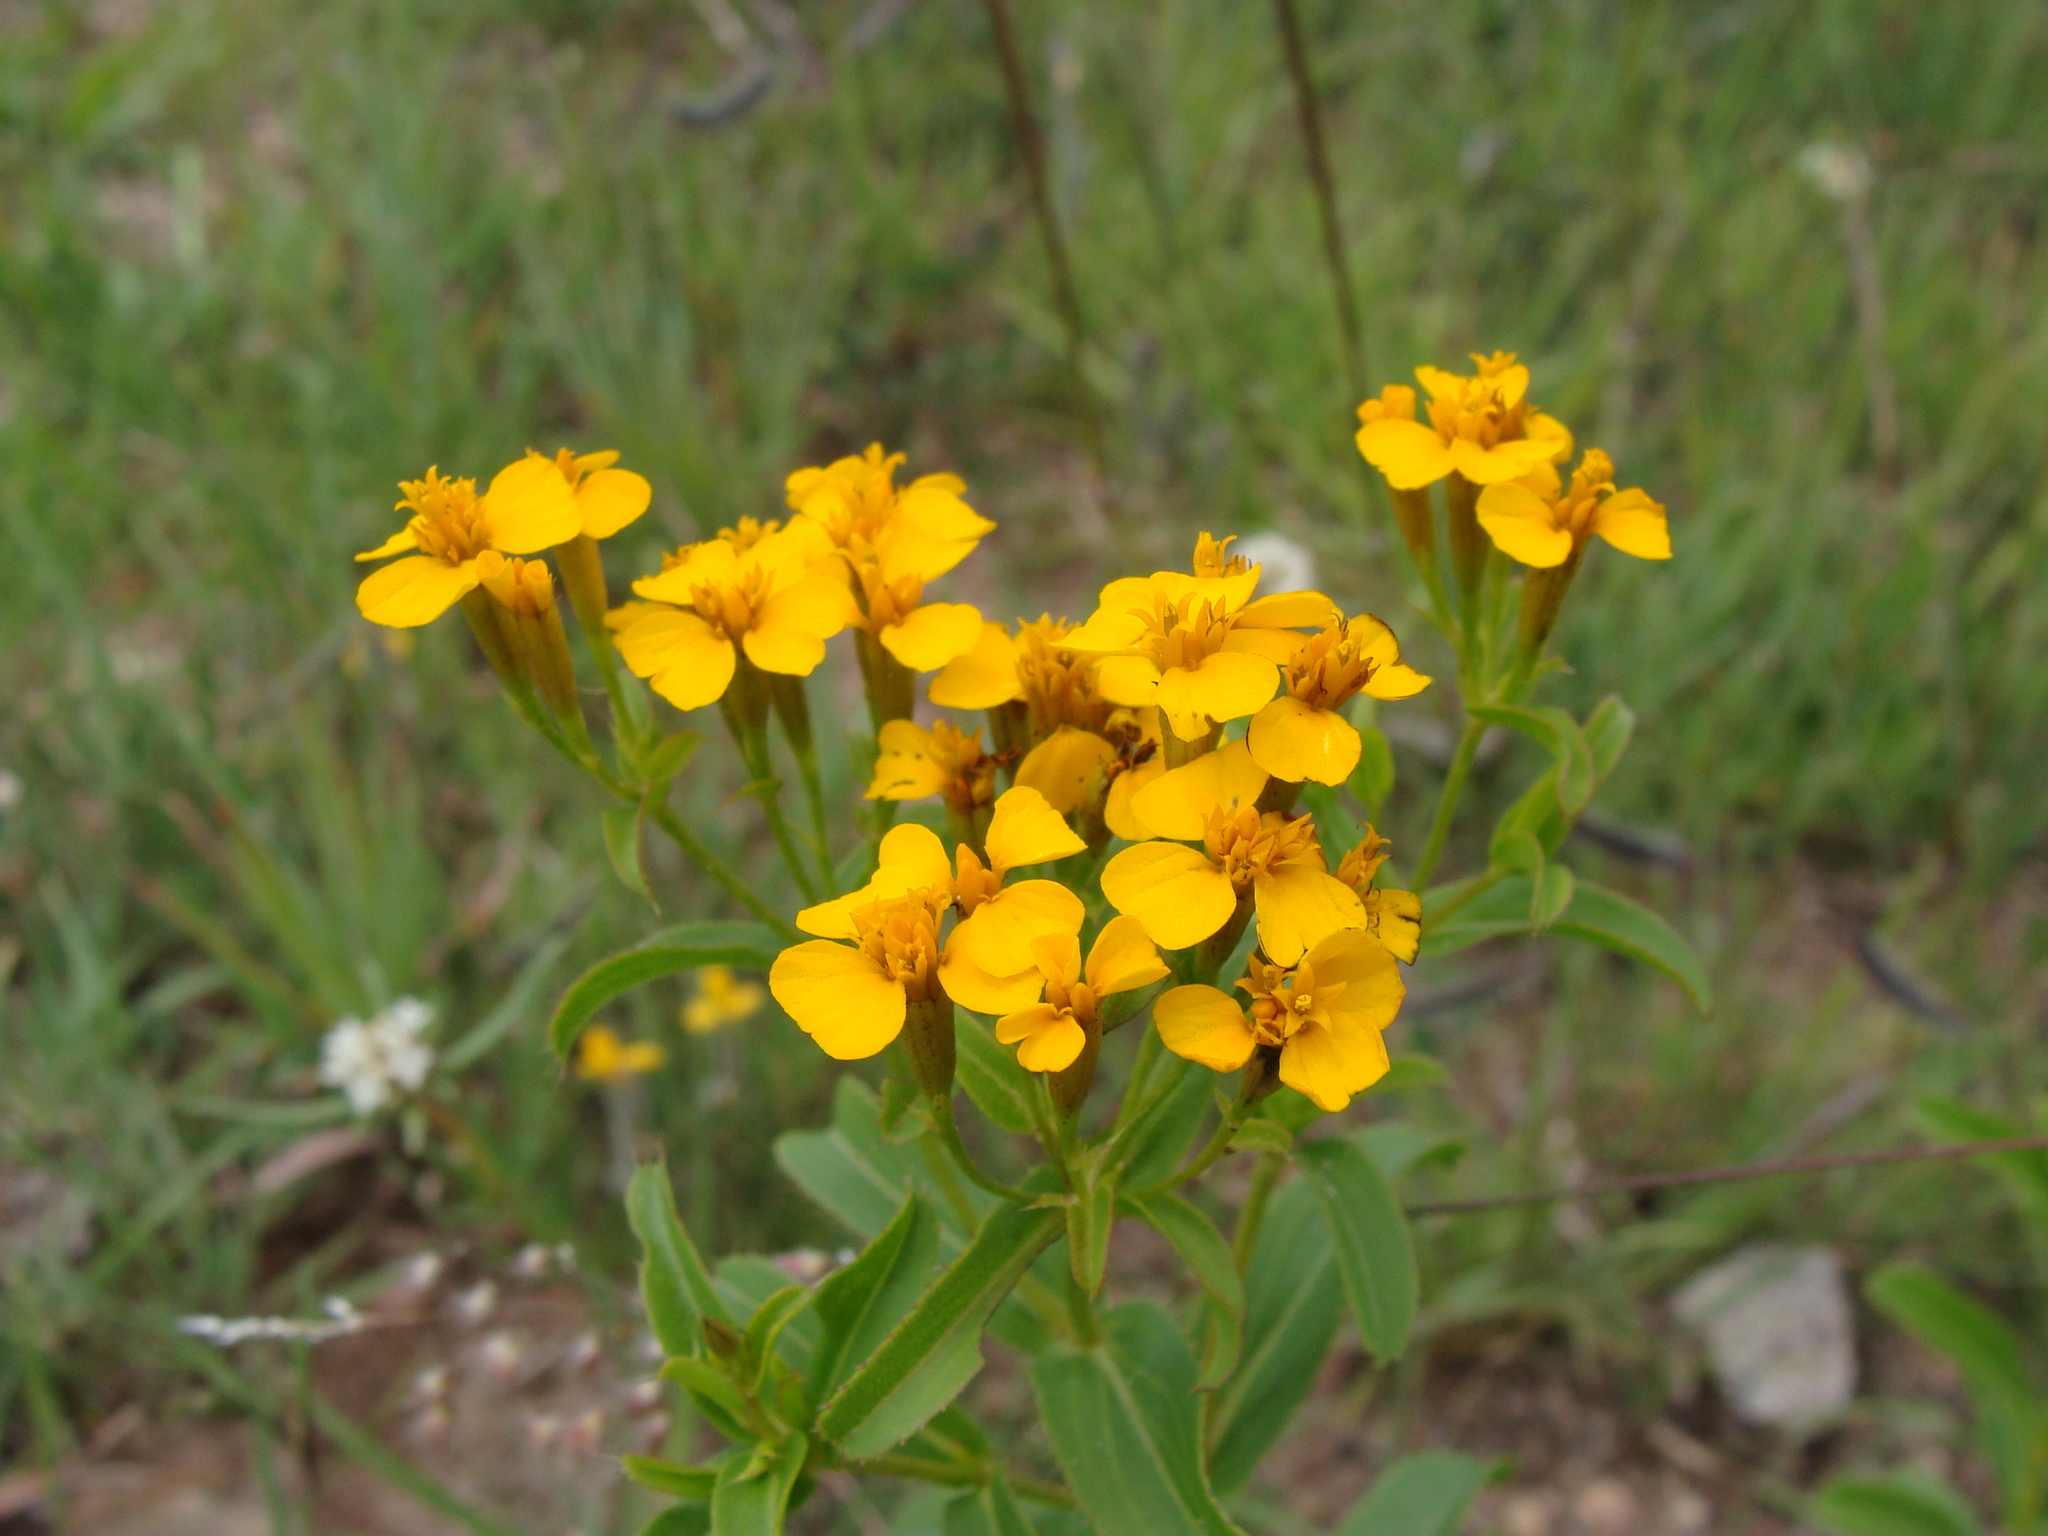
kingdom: Plantae
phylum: Tracheophyta
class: Magnoliopsida
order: Asterales
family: Asteraceae
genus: Tagetes
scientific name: Tagetes lucida
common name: Sweetscented marigold
